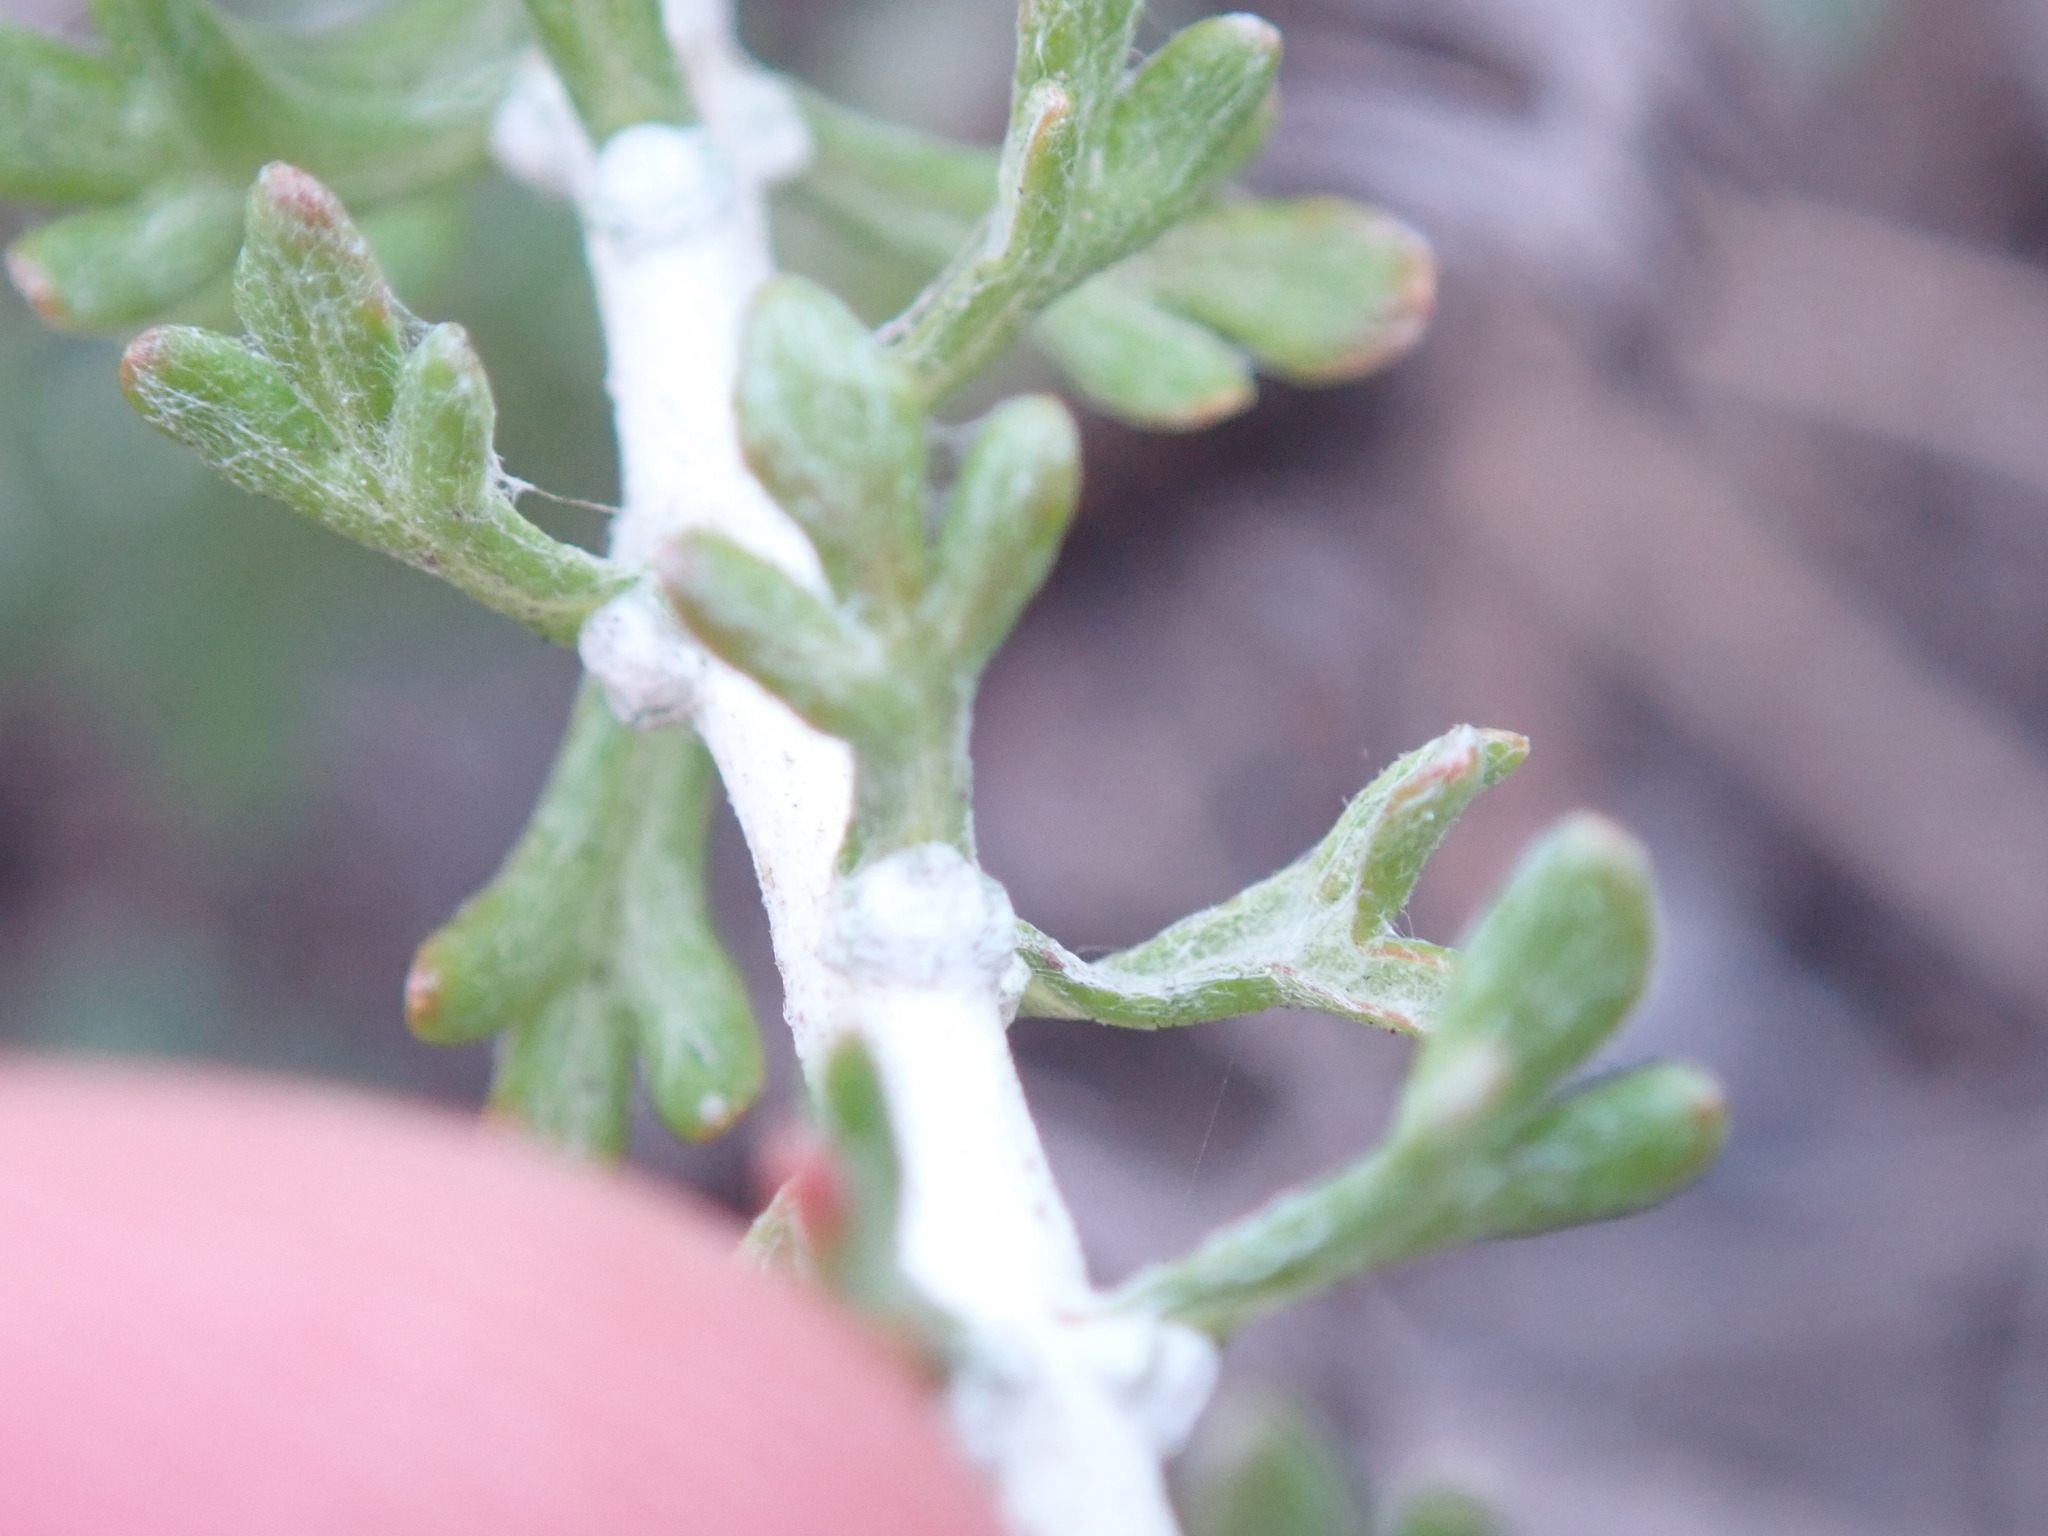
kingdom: Plantae
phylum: Tracheophyta
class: Magnoliopsida
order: Asterales
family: Asteraceae
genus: Eriophyllum
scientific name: Eriophyllum confertiflorum
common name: Golden-yarrow
